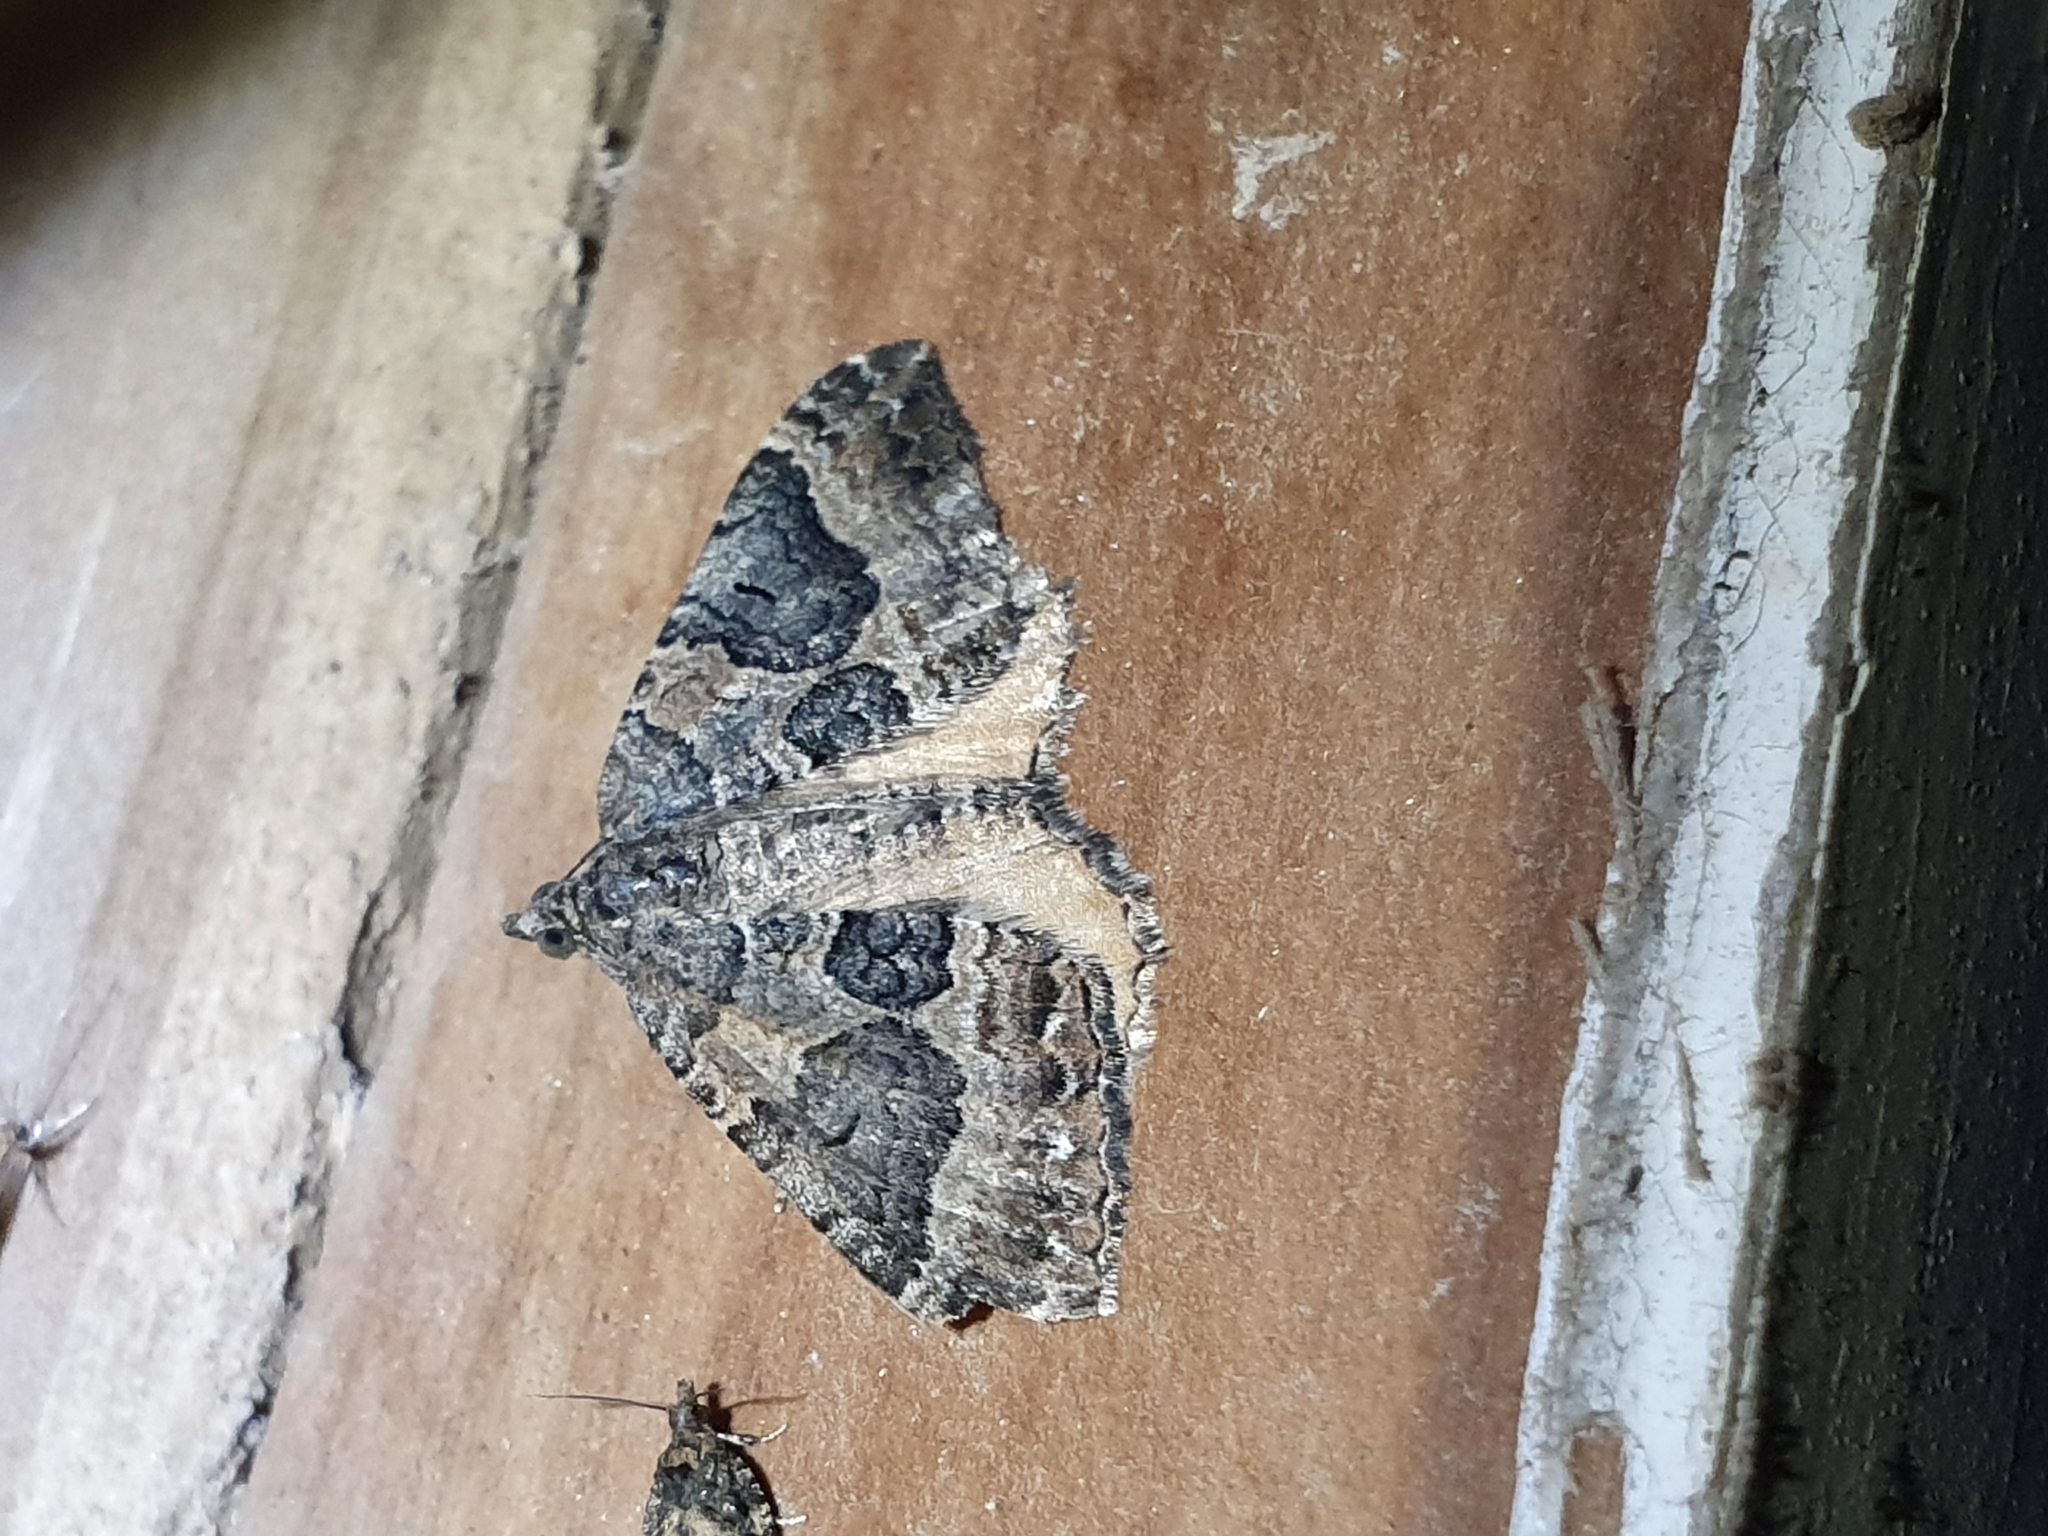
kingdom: Animalia
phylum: Arthropoda
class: Insecta
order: Lepidoptera
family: Geometridae
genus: Hydriomena
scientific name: Hydriomena deltoidata
